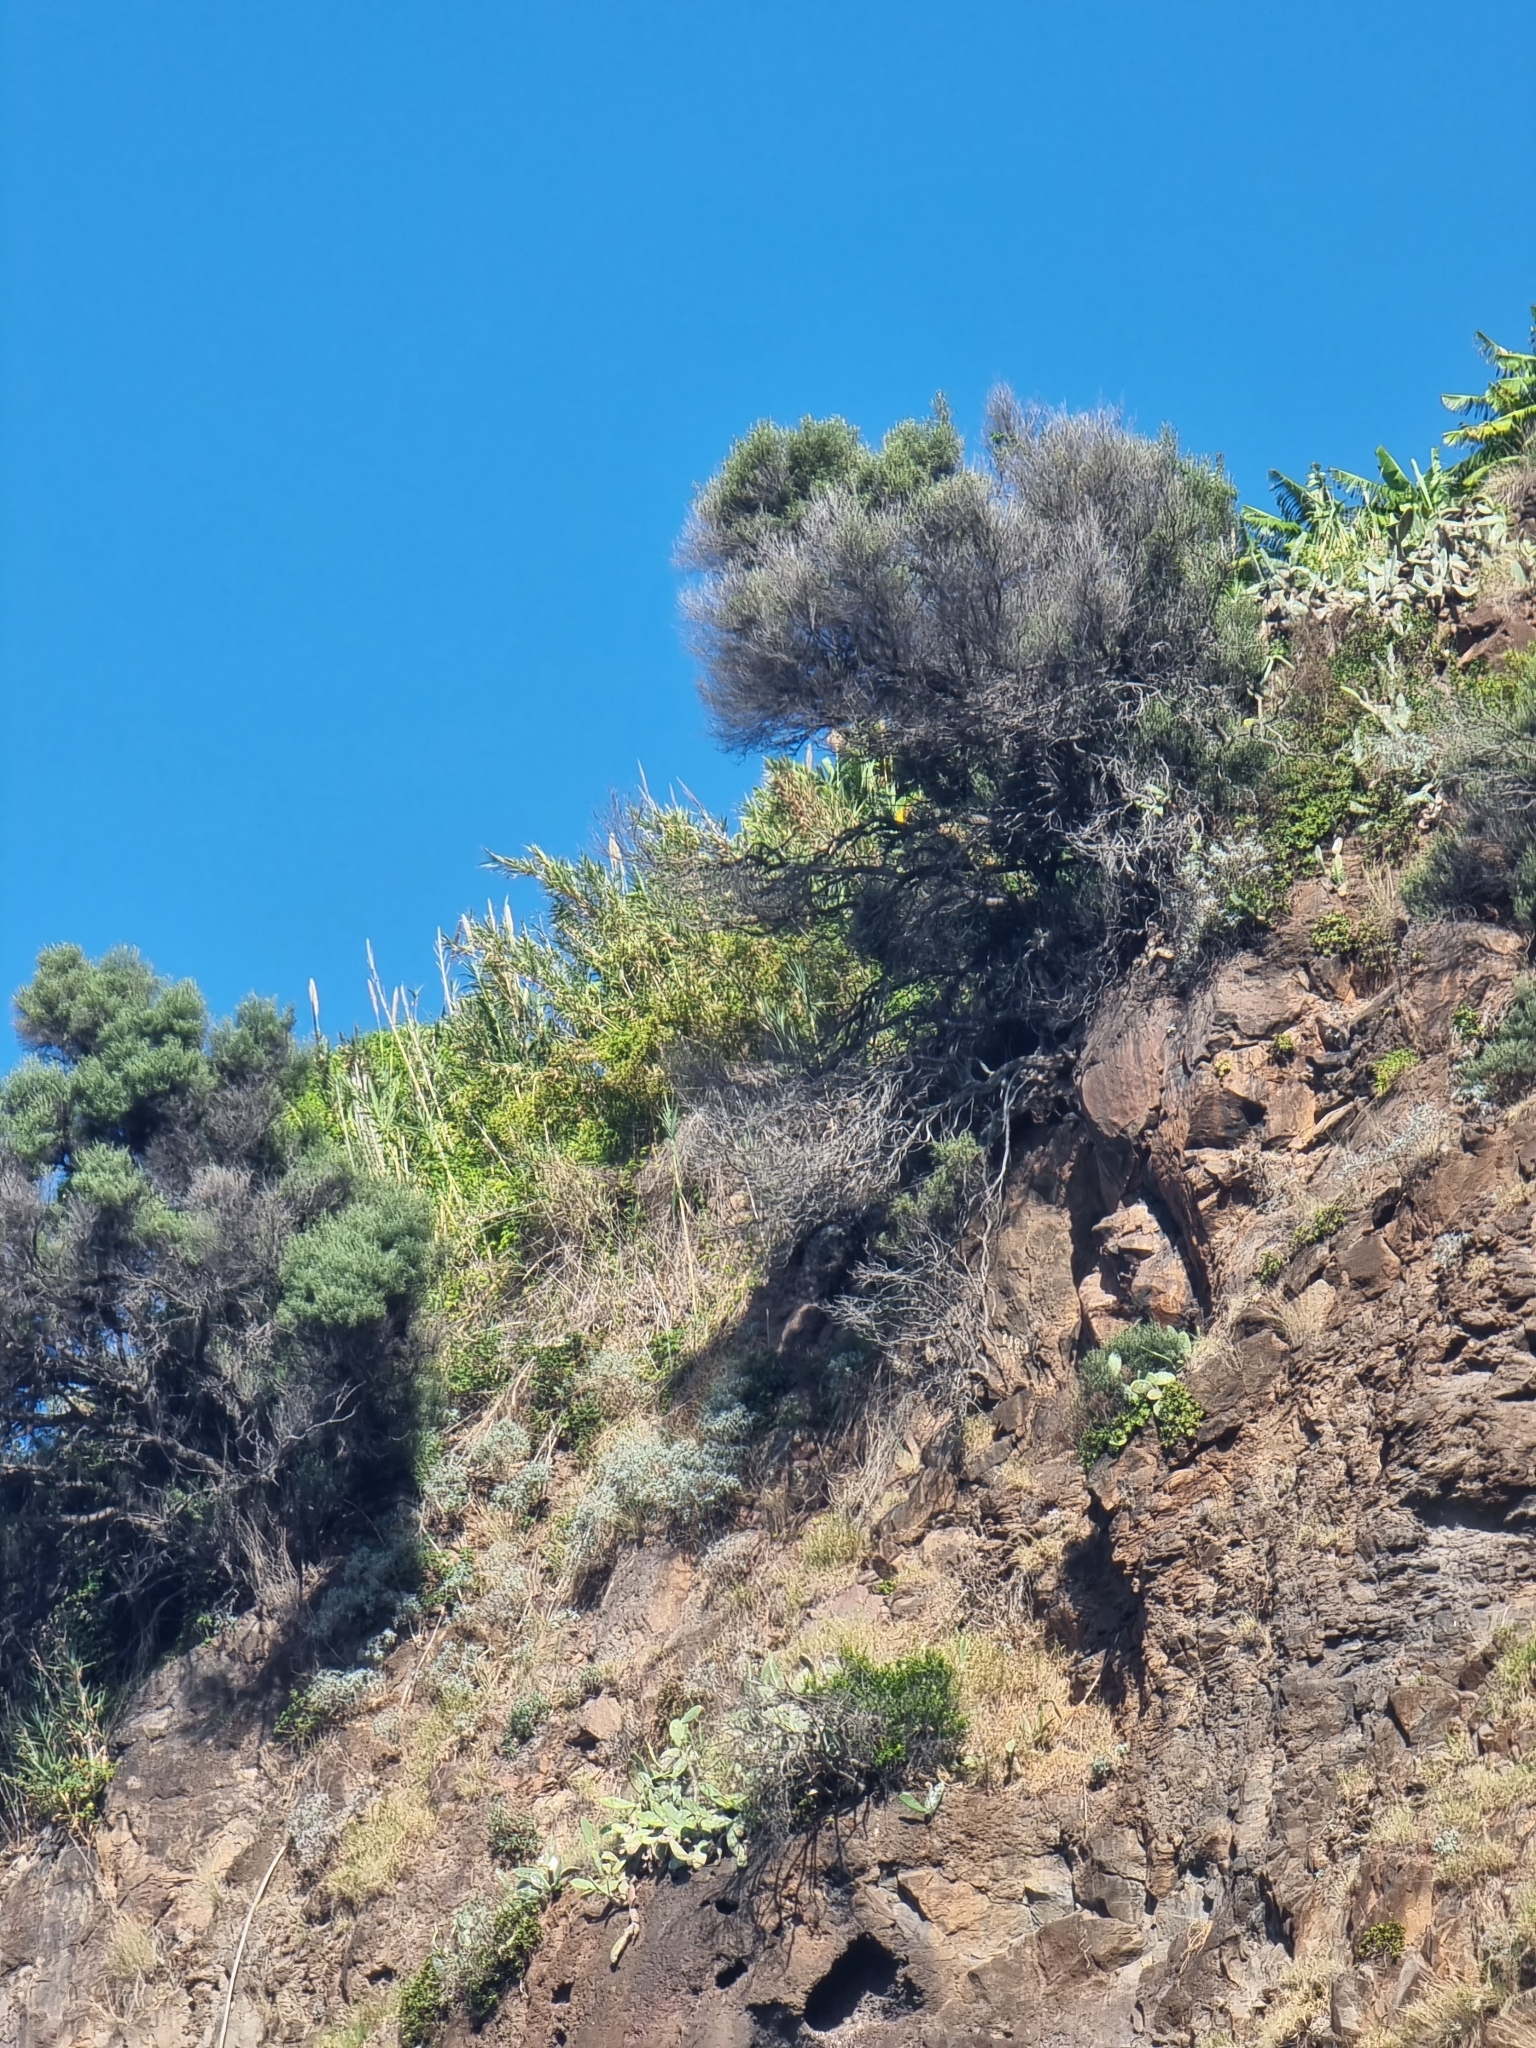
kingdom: Plantae
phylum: Tracheophyta
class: Magnoliopsida
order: Lamiales
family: Oleaceae
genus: Olea
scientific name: Olea europaea
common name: Olive
